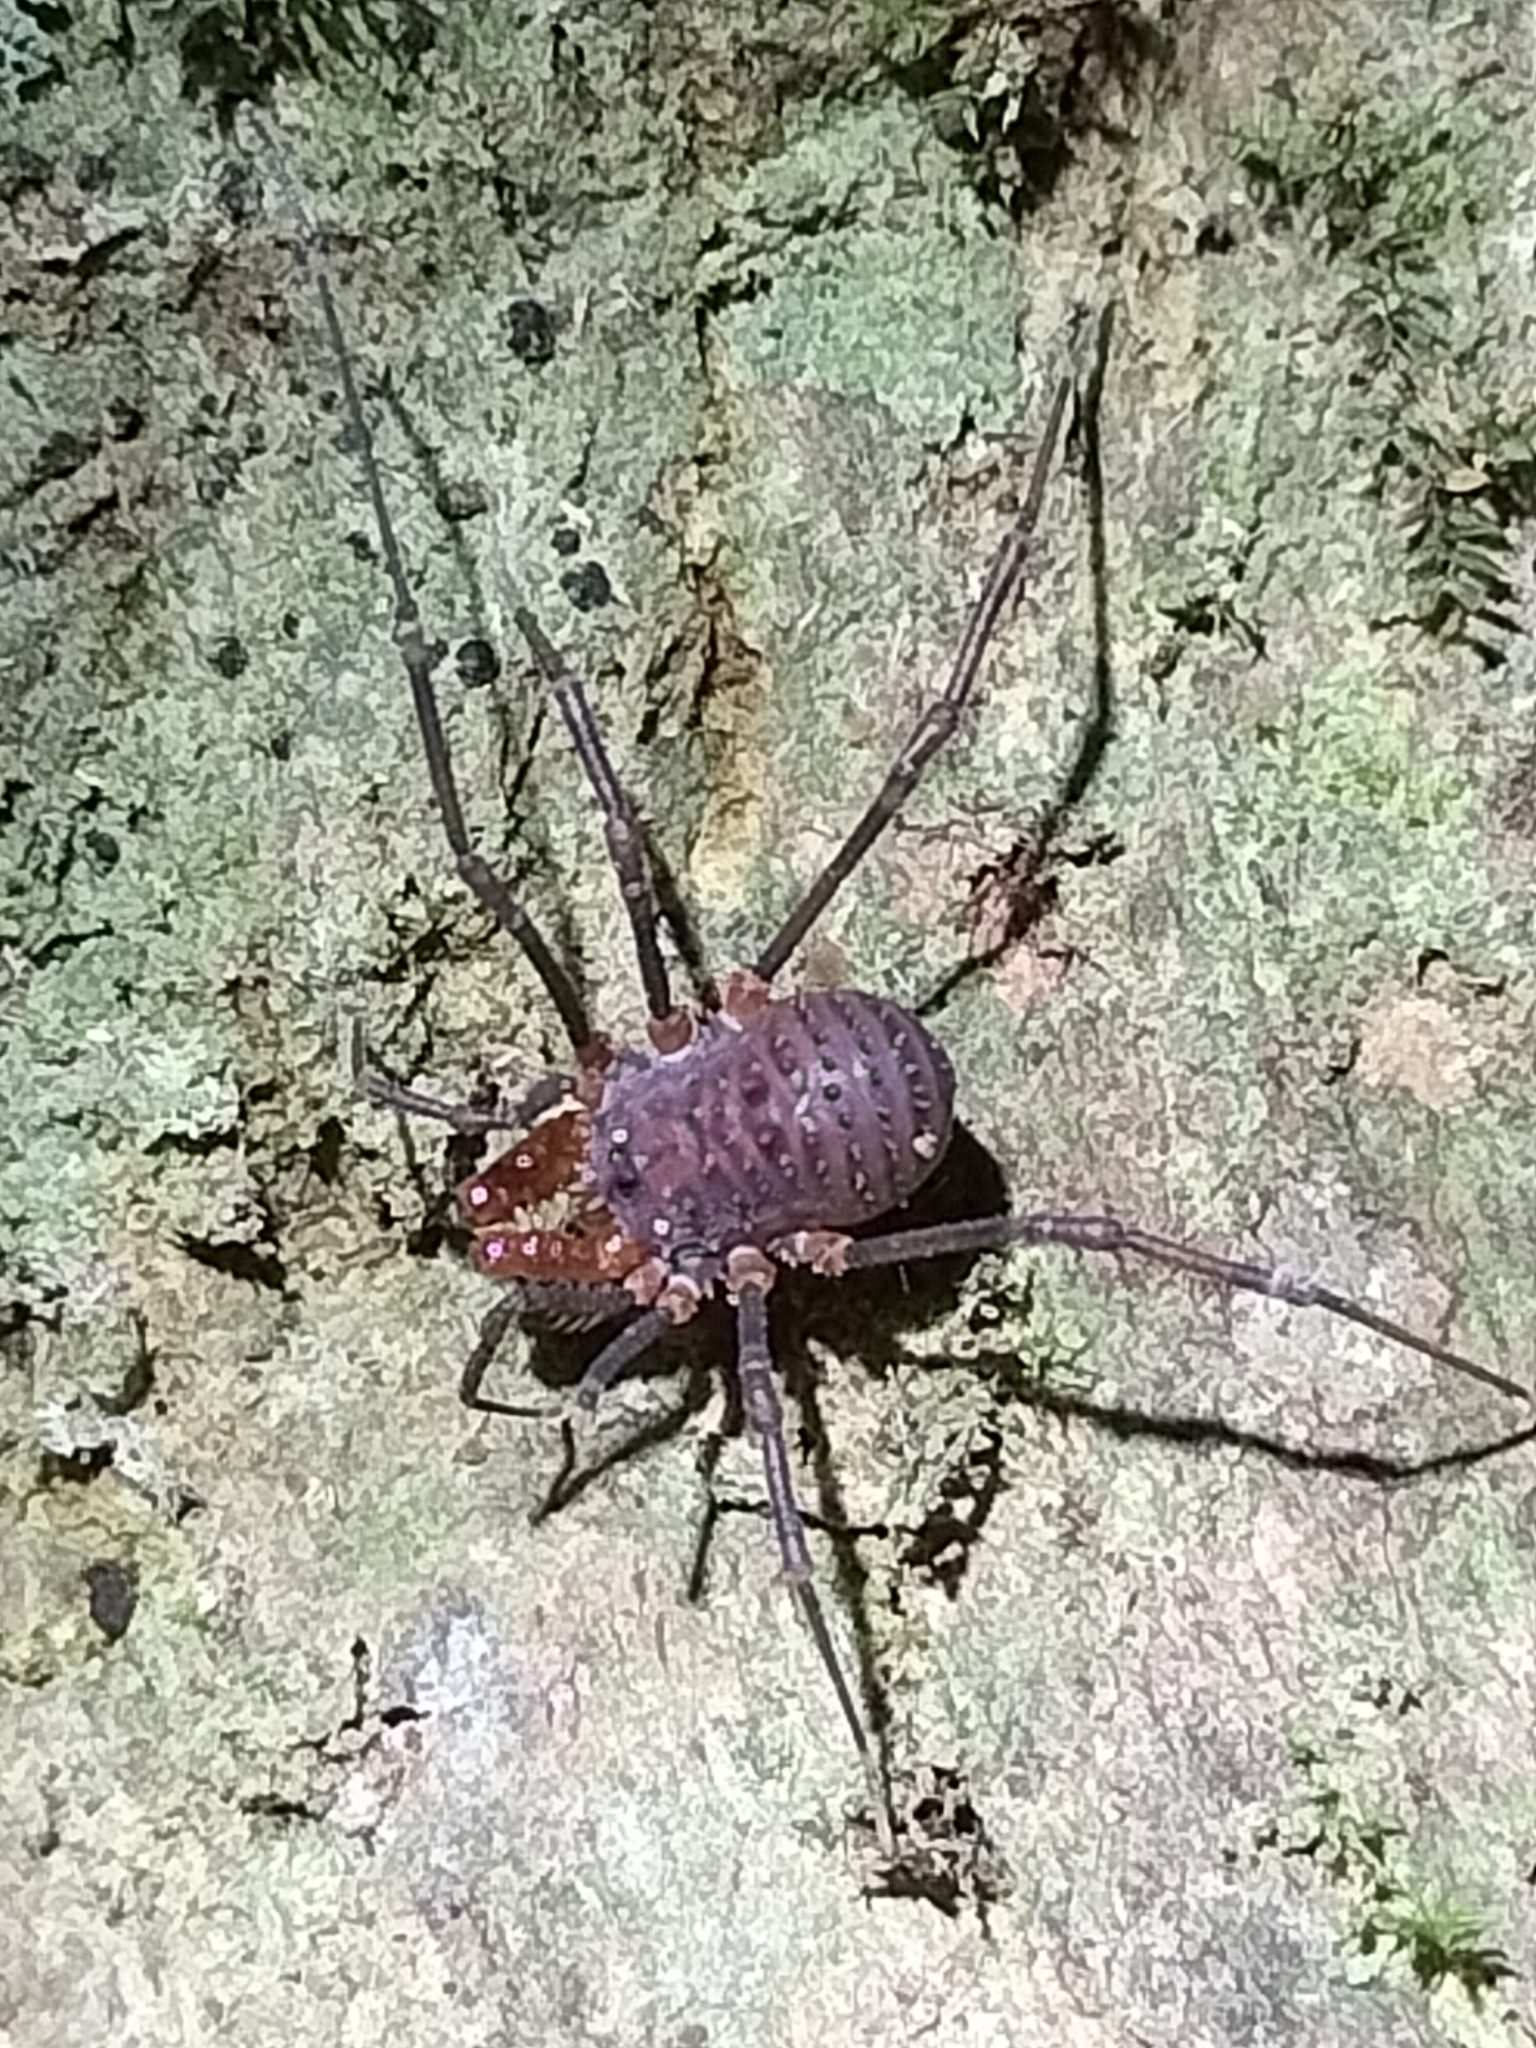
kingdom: Animalia
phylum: Arthropoda
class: Arachnida
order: Opiliones
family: Triaenonychidae
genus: Heteronuncia
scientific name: Heteronuncia robusta
